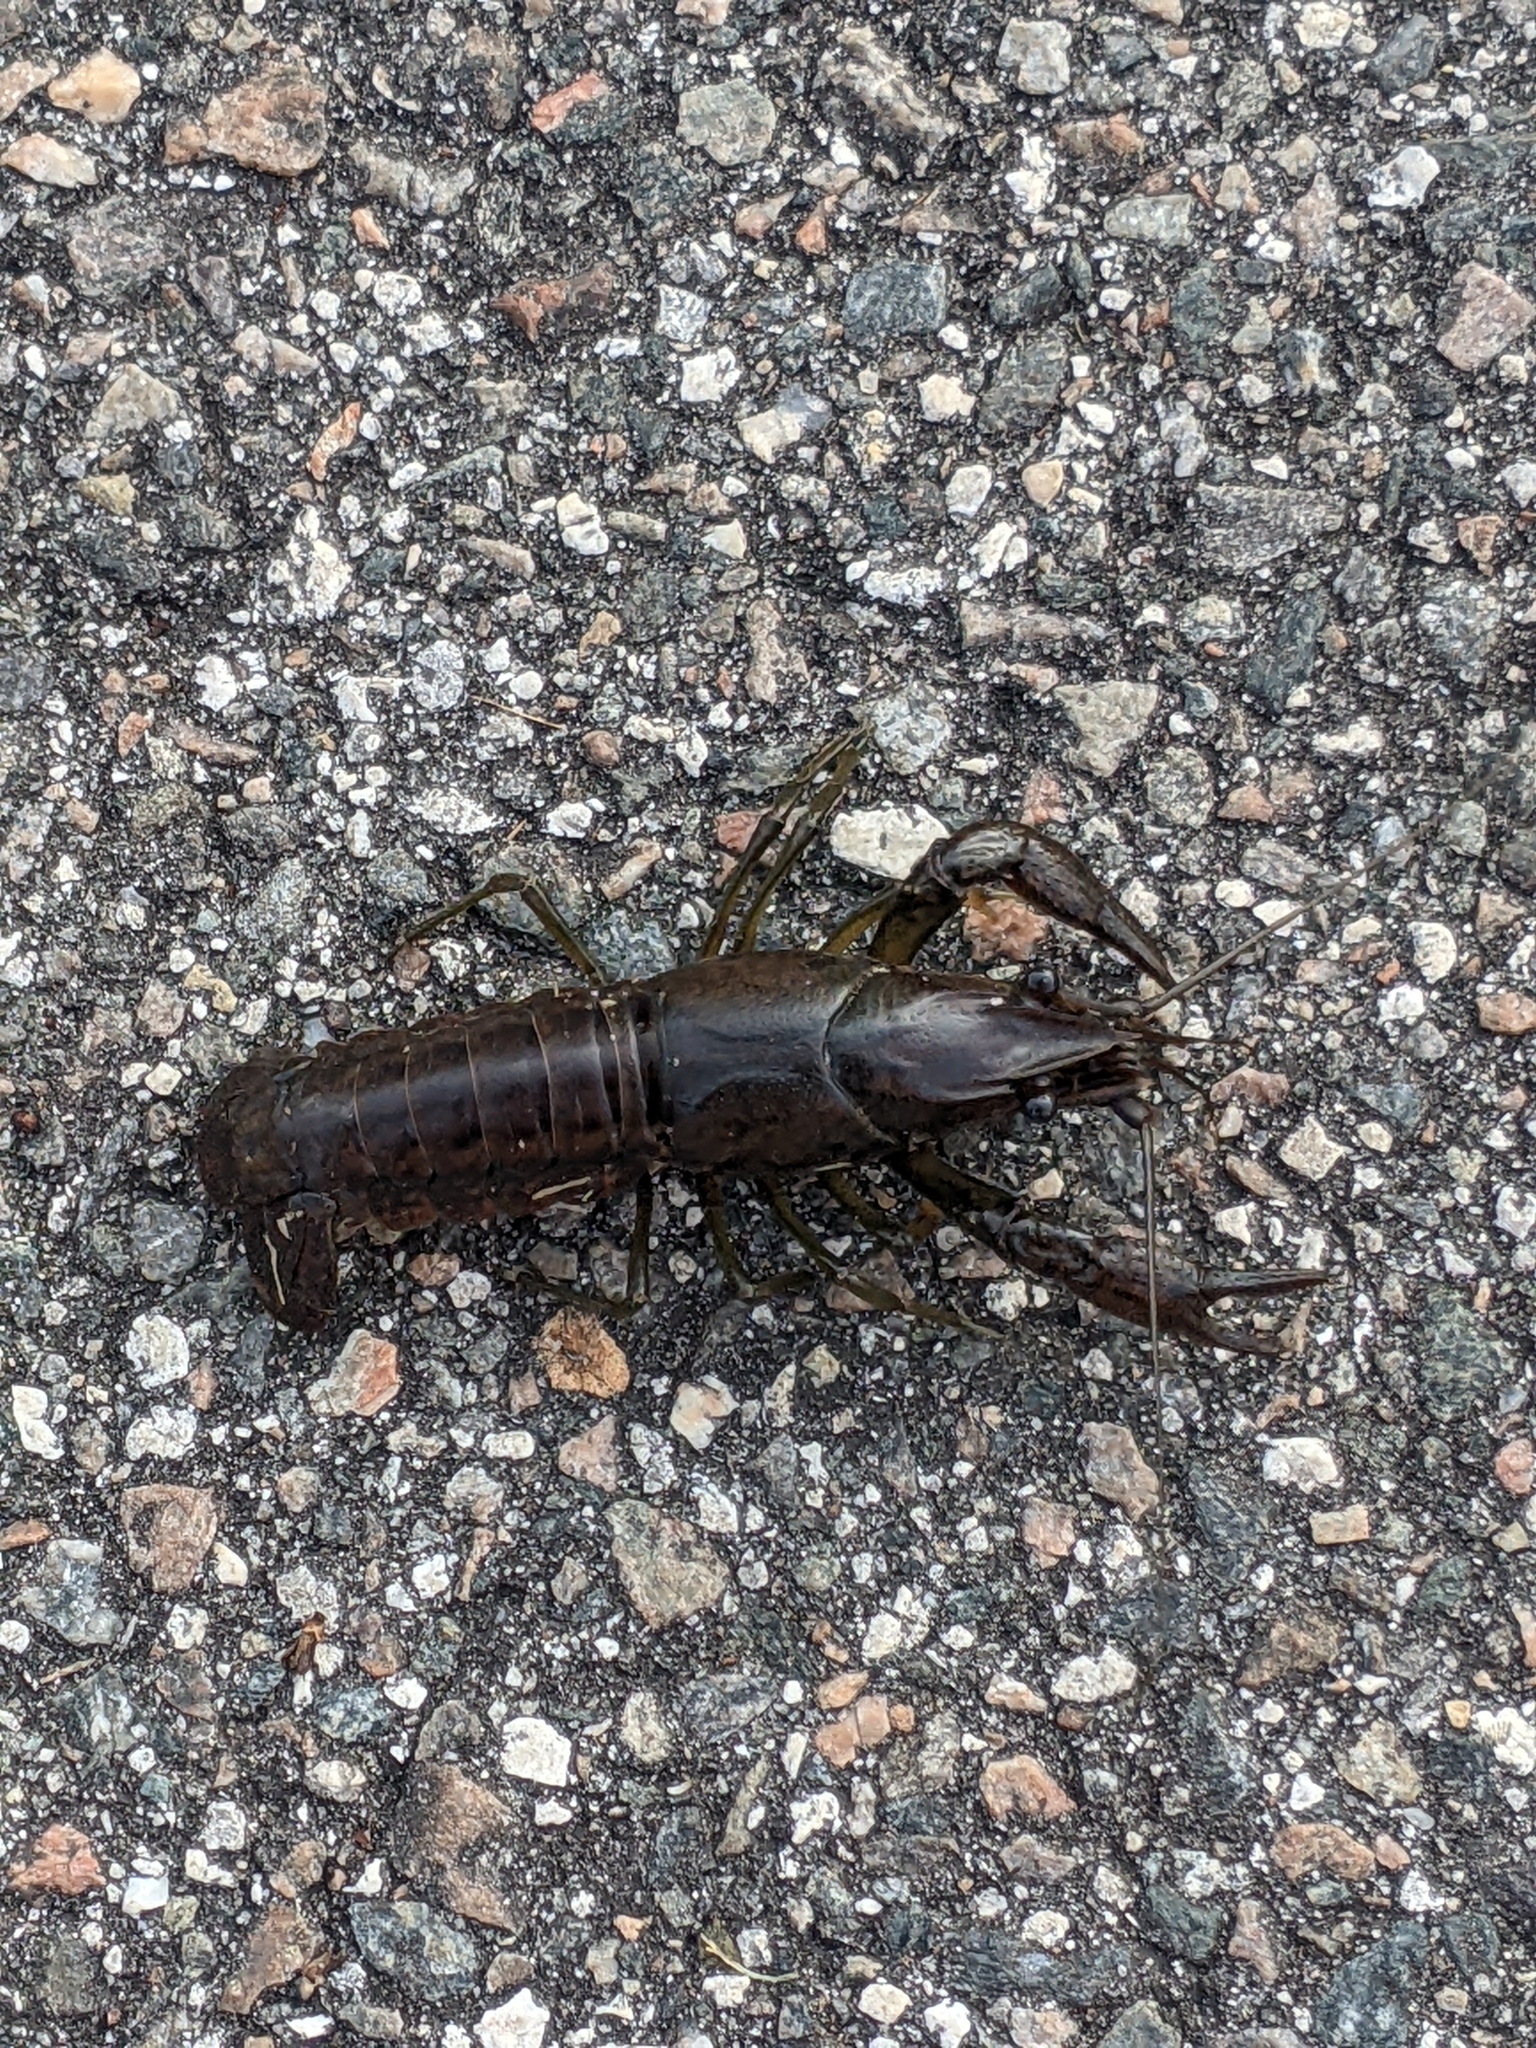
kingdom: Animalia
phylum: Arthropoda
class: Malacostraca
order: Decapoda
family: Cambaridae
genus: Procambarus
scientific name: Procambarus fallax
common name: Deceitful crayfish
